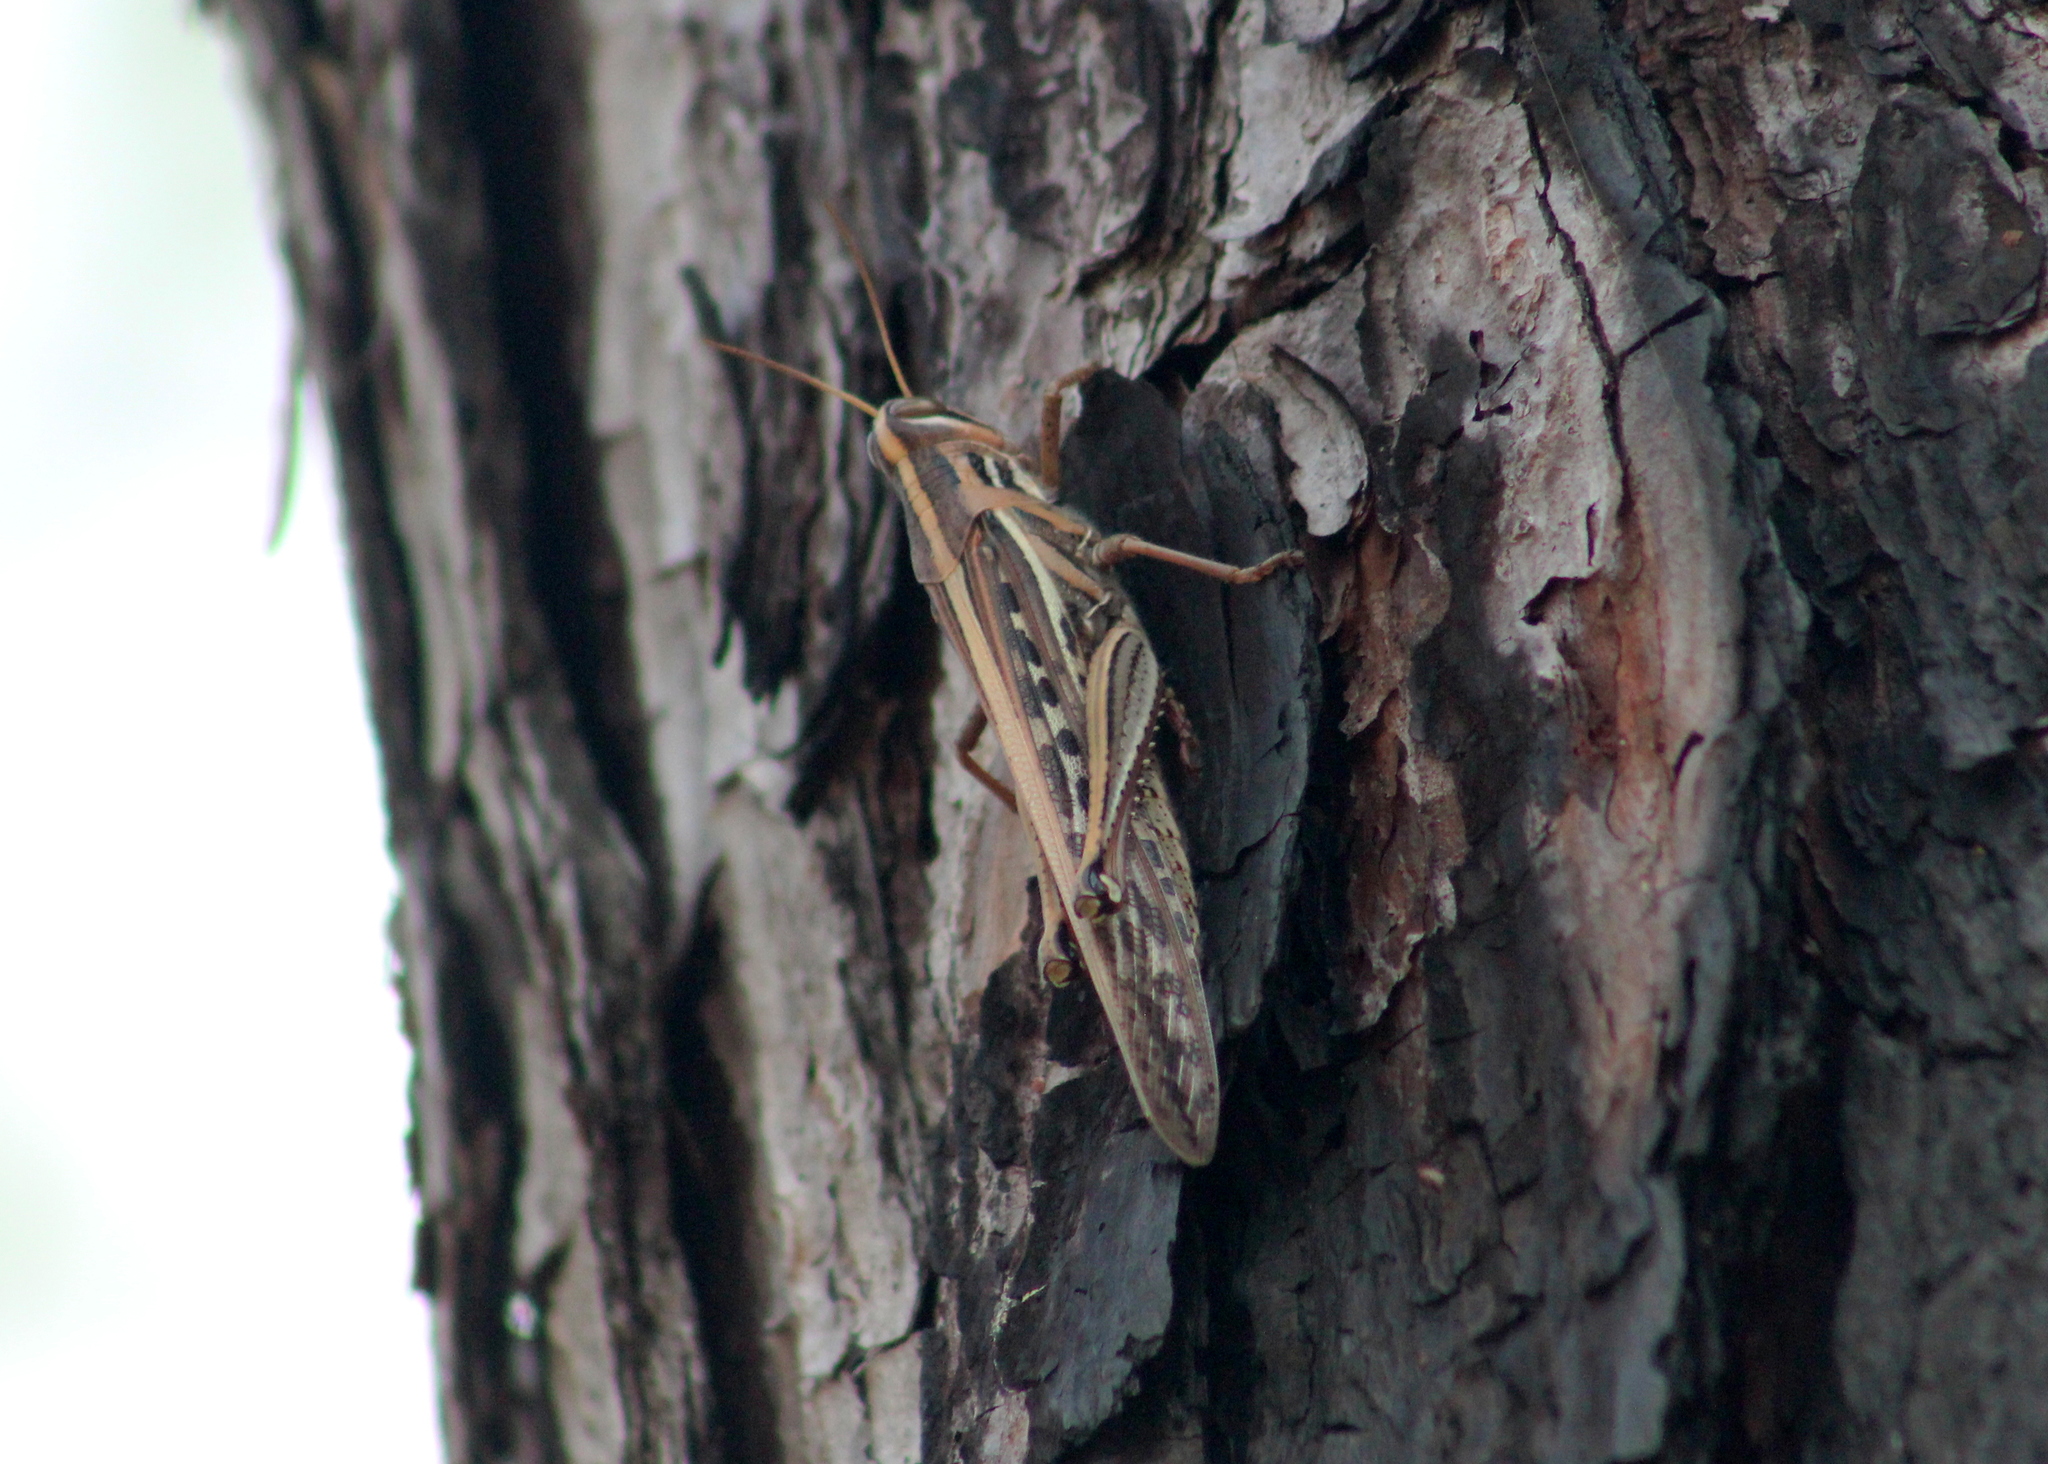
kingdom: Animalia
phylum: Arthropoda
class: Insecta
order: Orthoptera
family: Acrididae
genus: Schistocerca
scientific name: Schistocerca americana
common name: American bird locust
